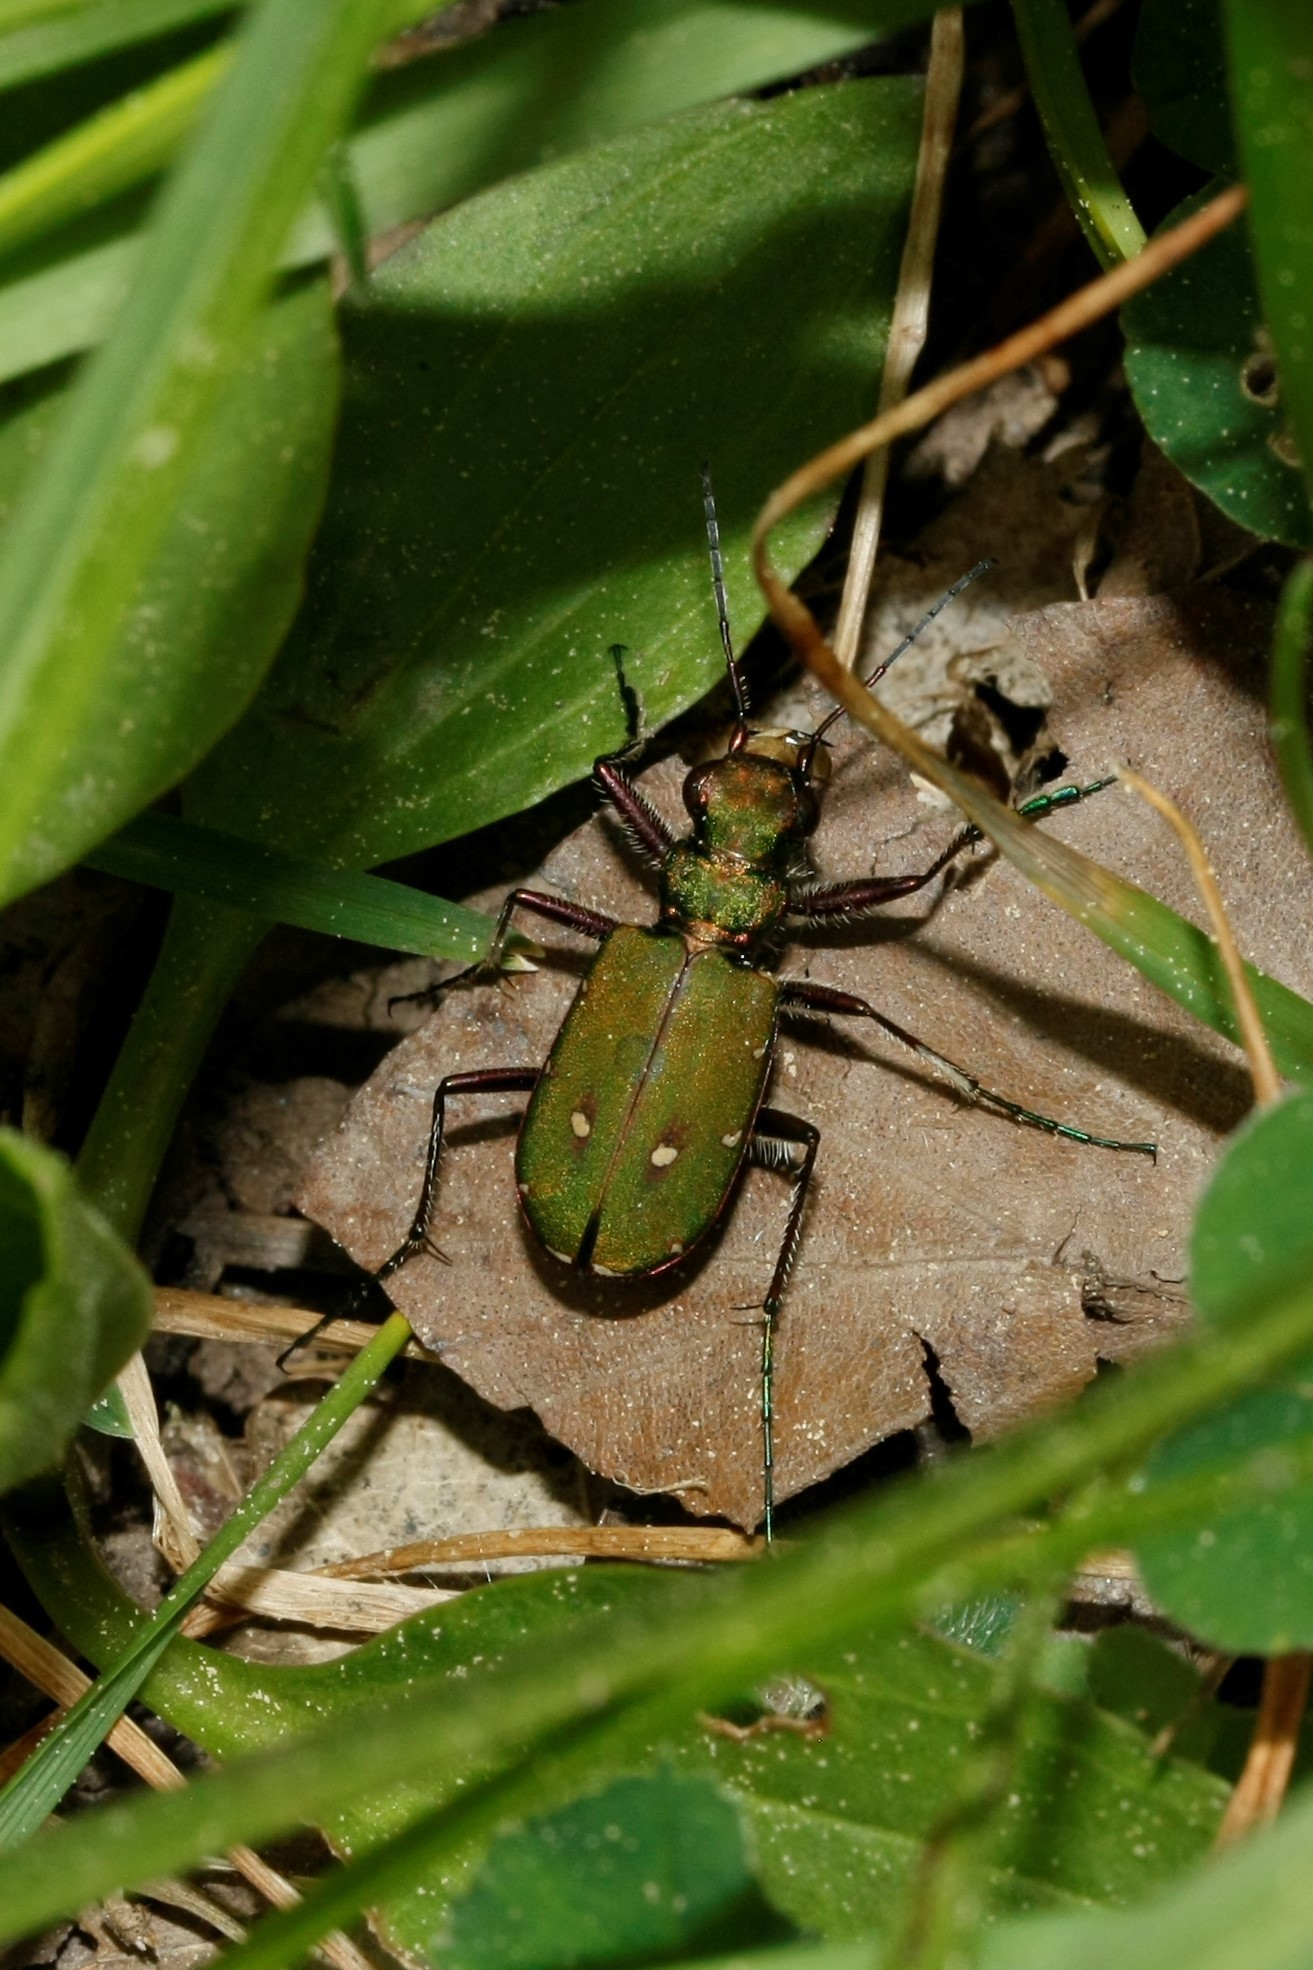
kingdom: Animalia
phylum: Arthropoda
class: Insecta
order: Coleoptera
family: Carabidae
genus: Cicindela
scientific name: Cicindela campestris
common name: Common tiger beetle
